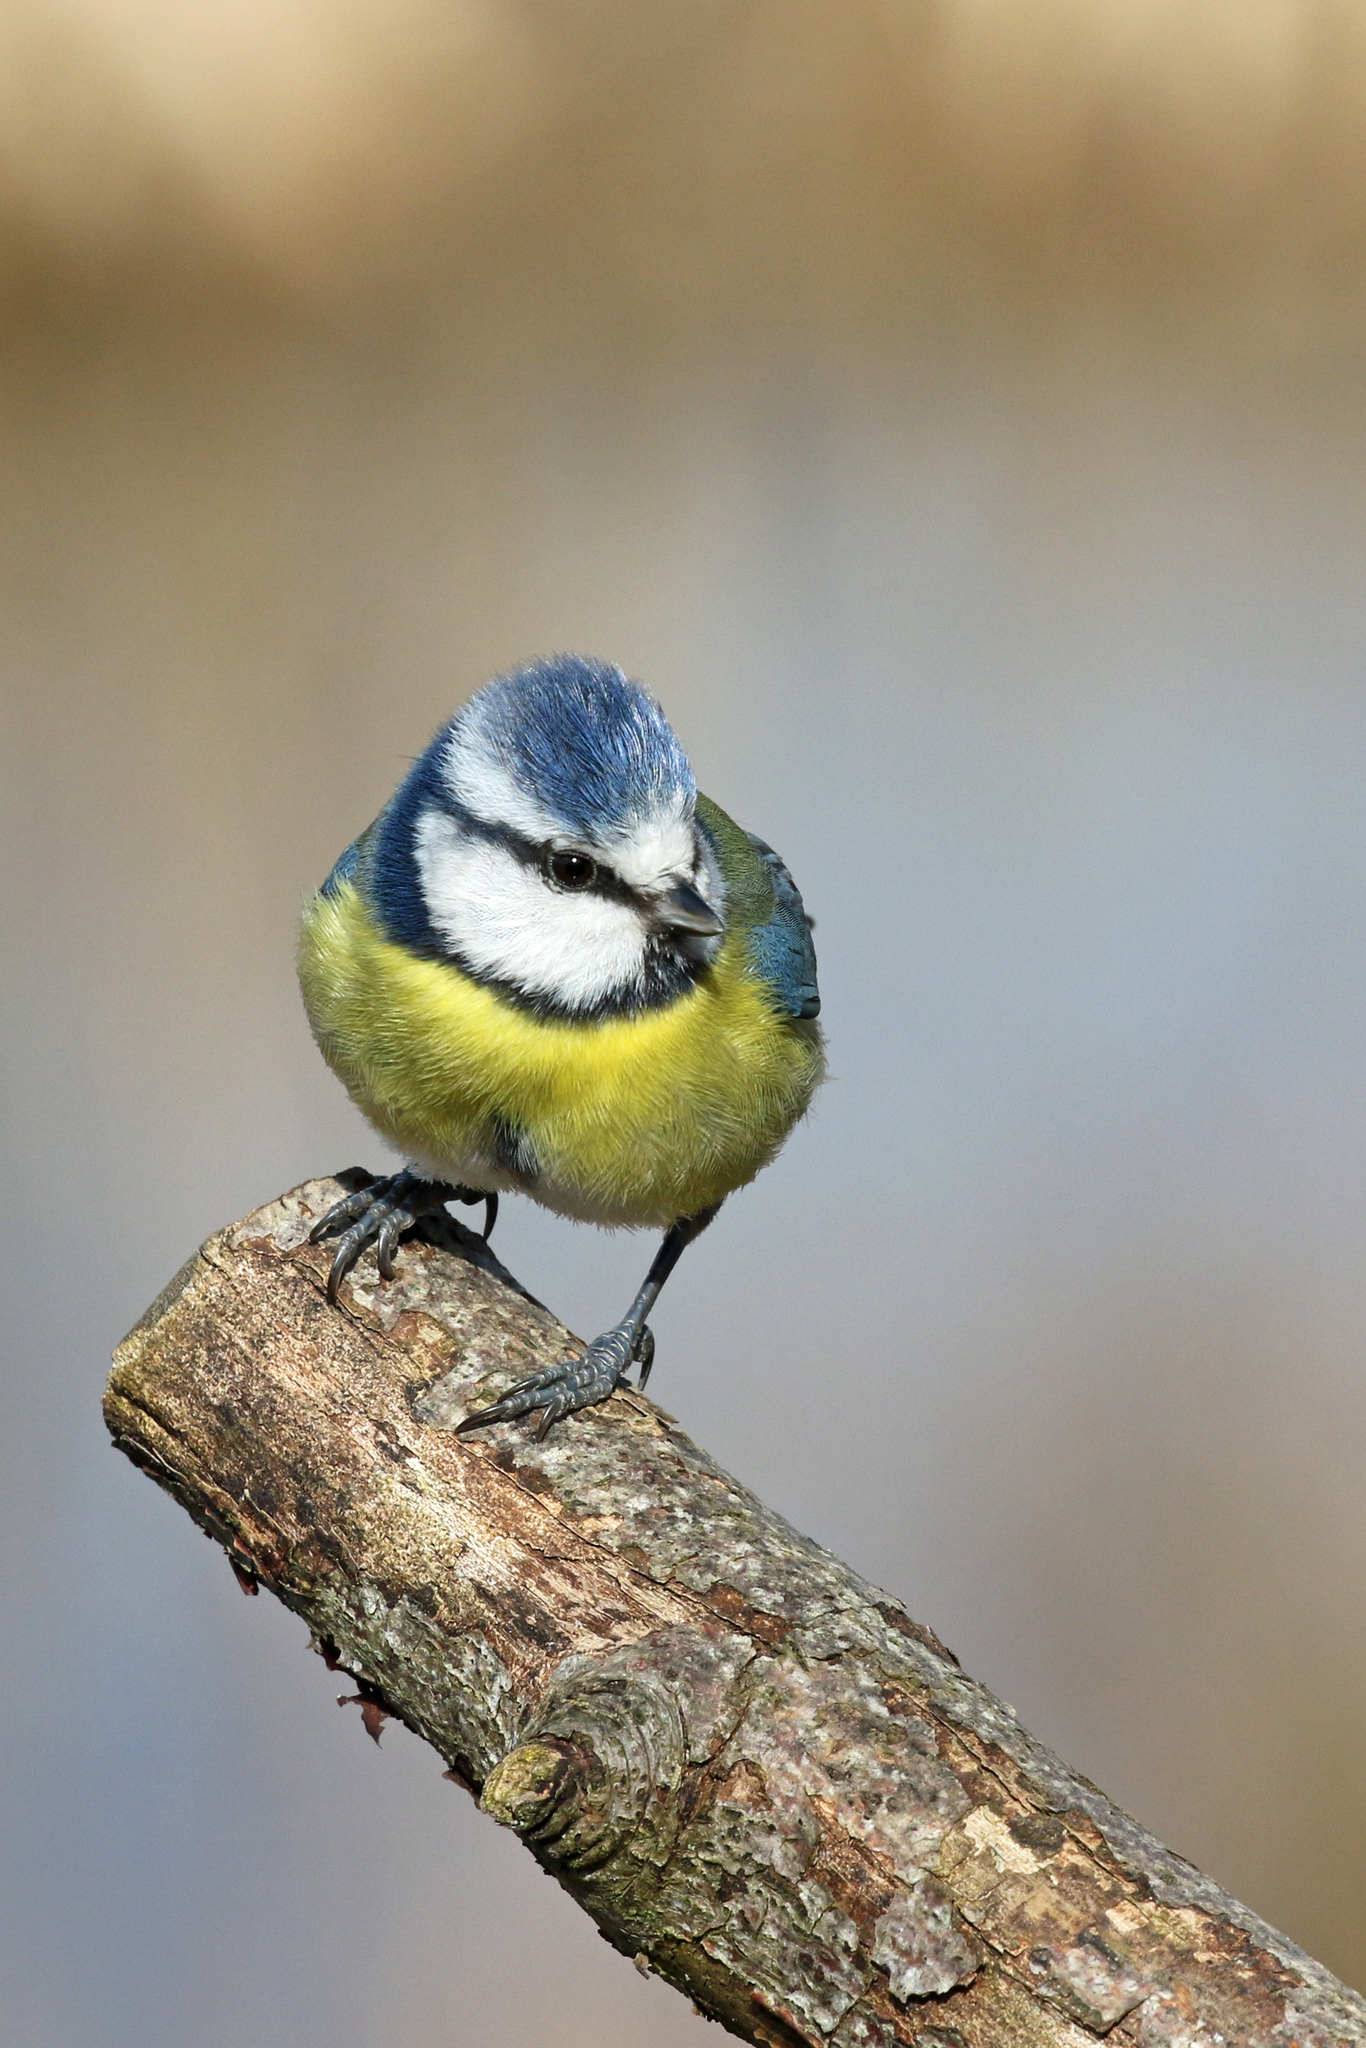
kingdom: Animalia
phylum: Chordata
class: Aves
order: Passeriformes
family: Paridae
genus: Cyanistes
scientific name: Cyanistes caeruleus
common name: Eurasian blue tit
